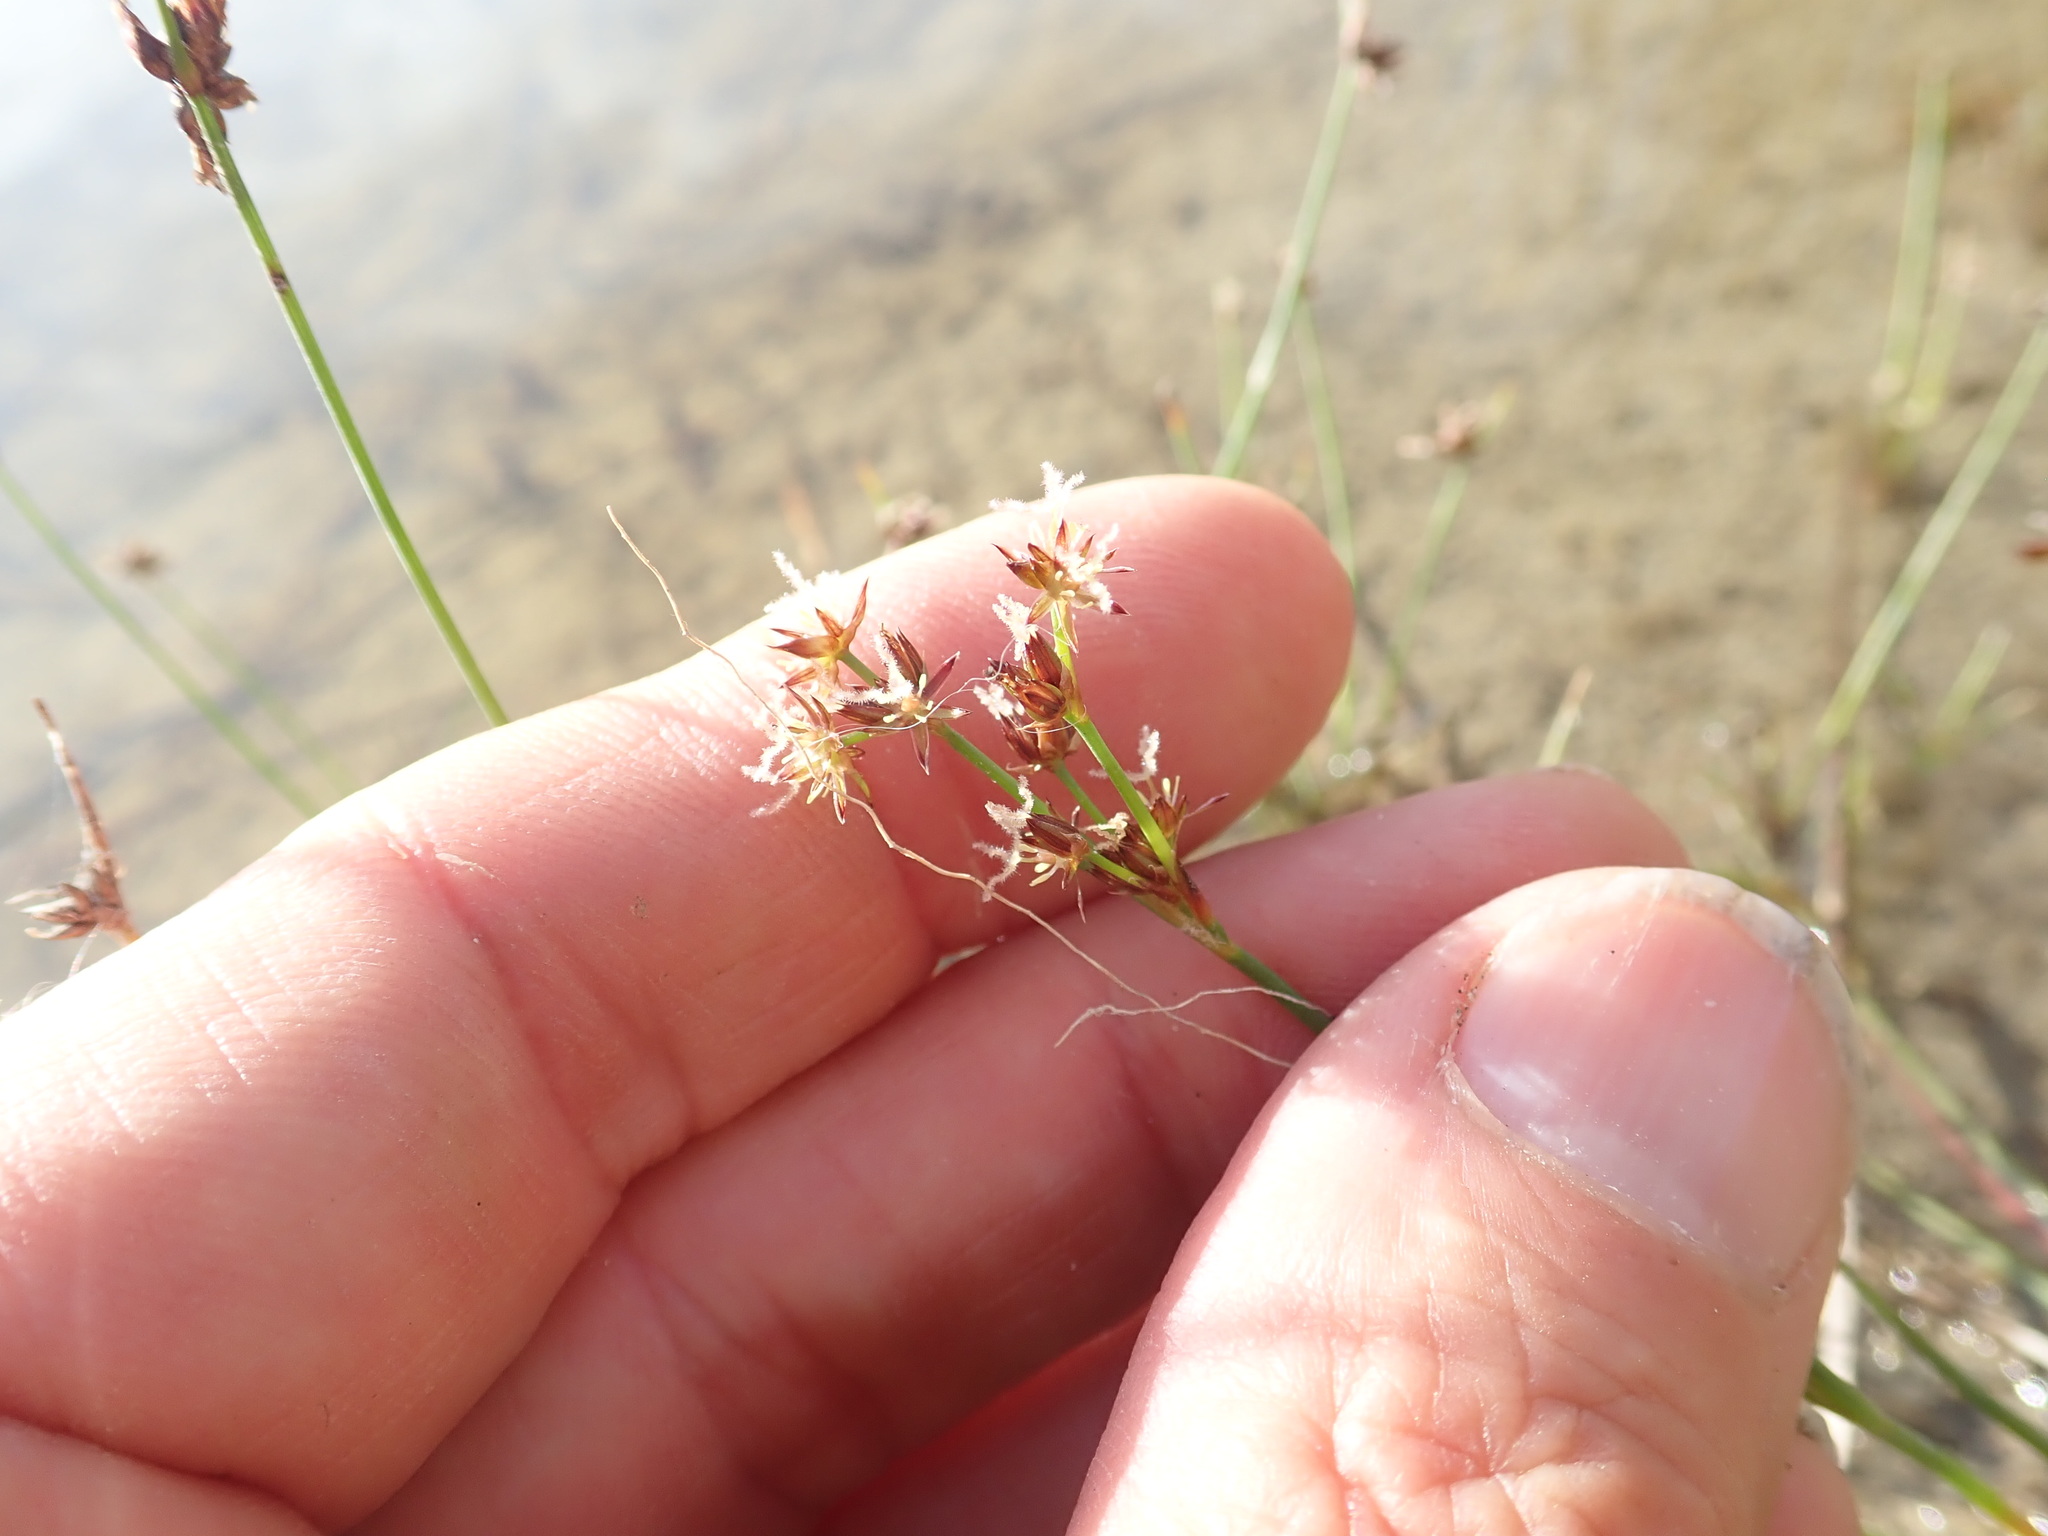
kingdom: Plantae
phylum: Tracheophyta
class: Liliopsida
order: Poales
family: Juncaceae
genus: Juncus
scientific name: Juncus articulatus
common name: Jointed rush
